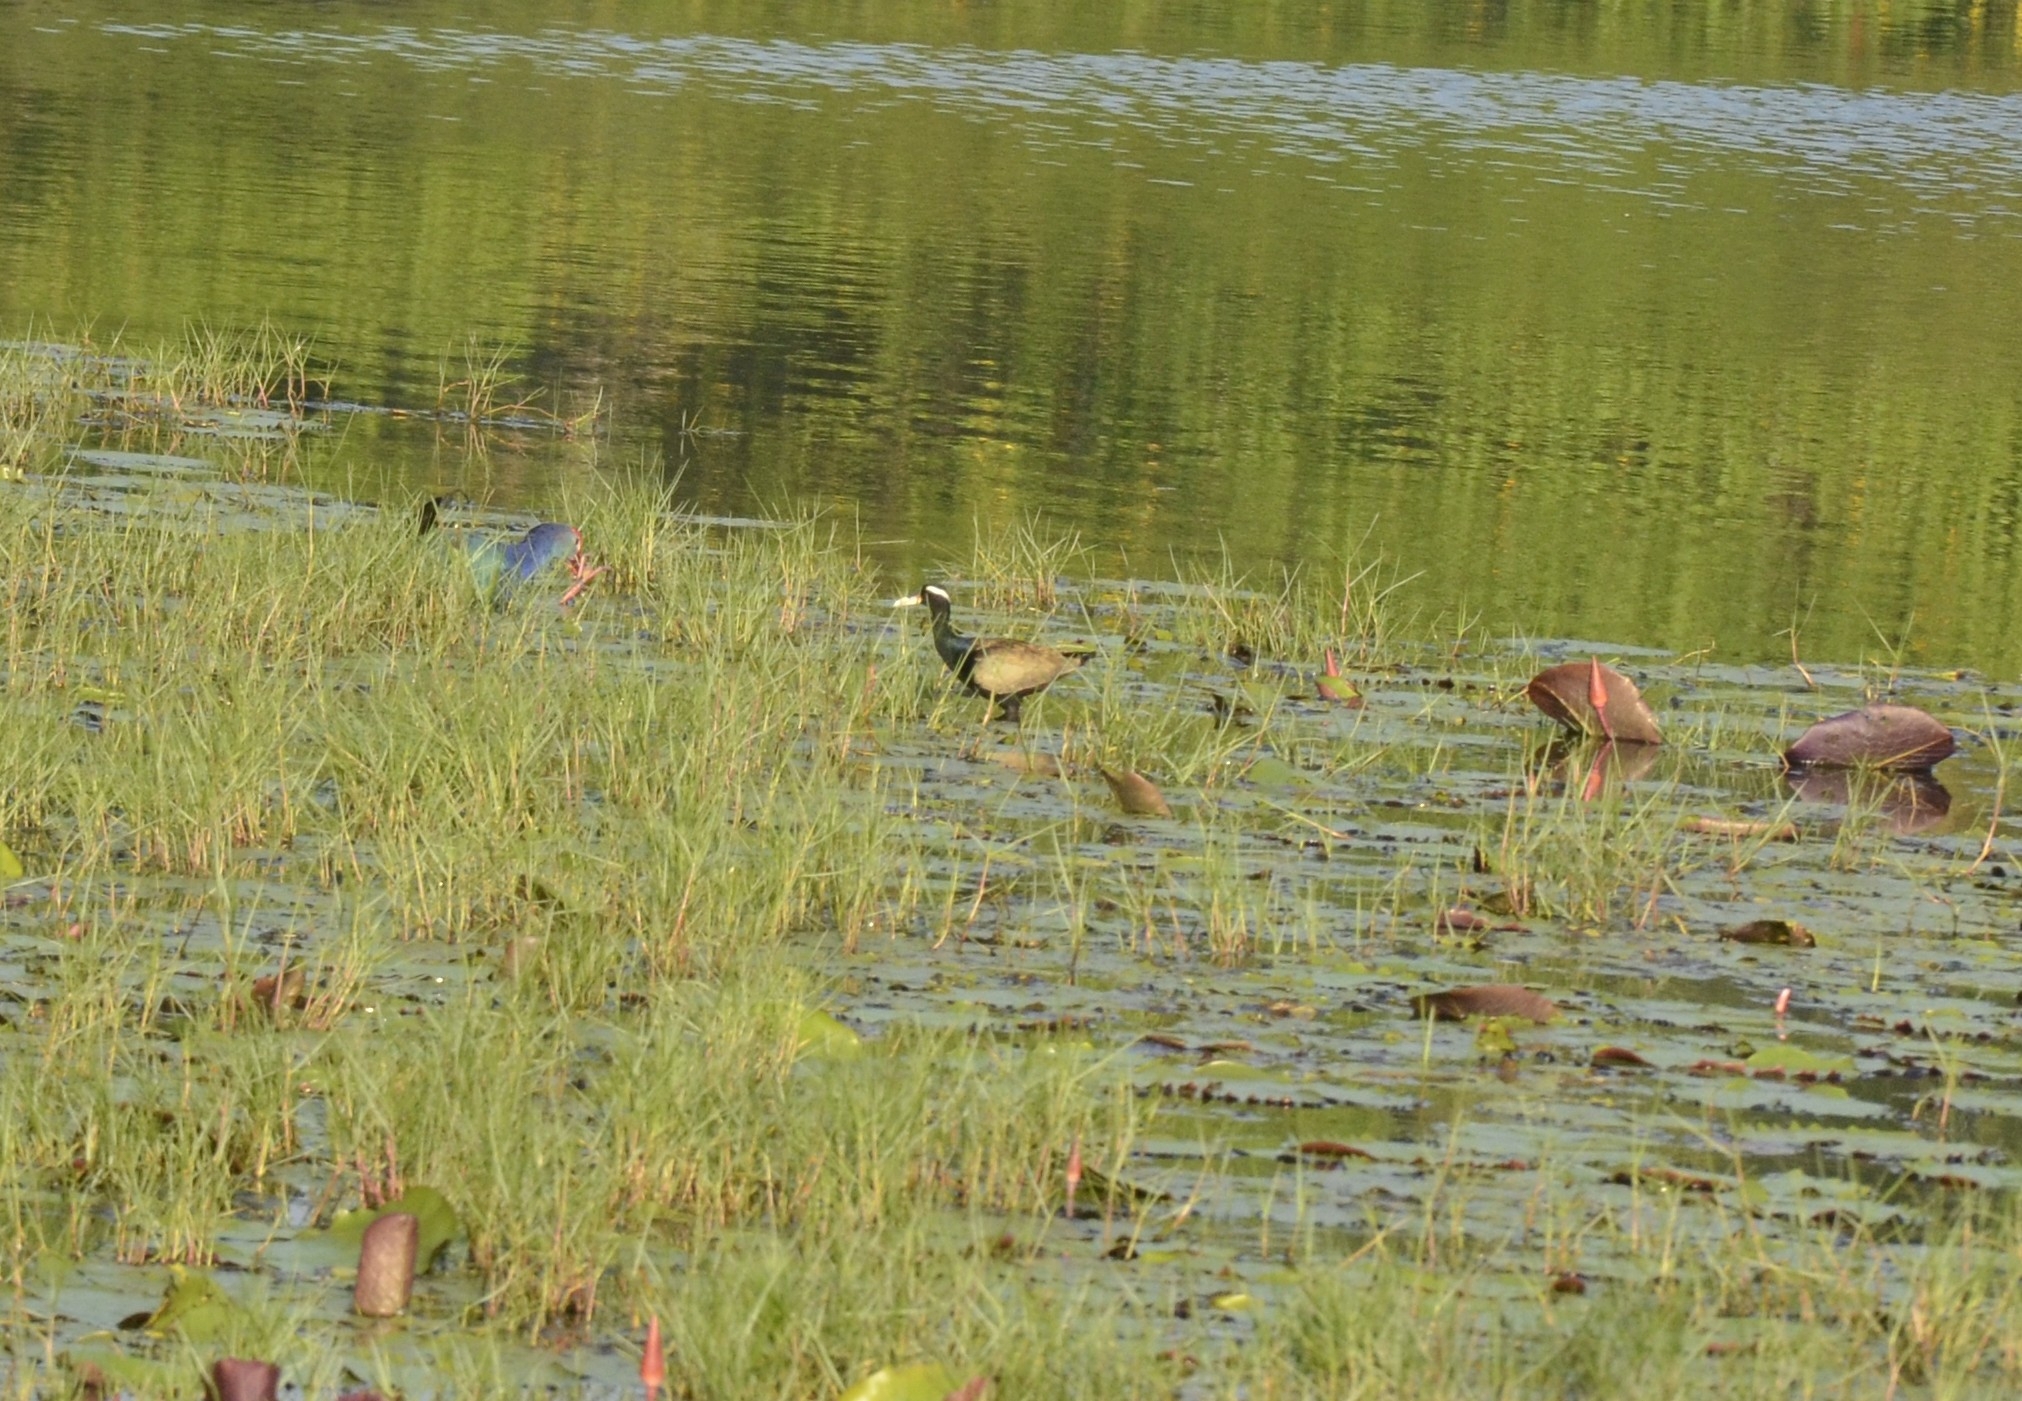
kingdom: Animalia
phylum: Chordata
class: Aves
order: Charadriiformes
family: Jacanidae
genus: Metopidius
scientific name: Metopidius indicus
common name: Bronze-winged jacana
